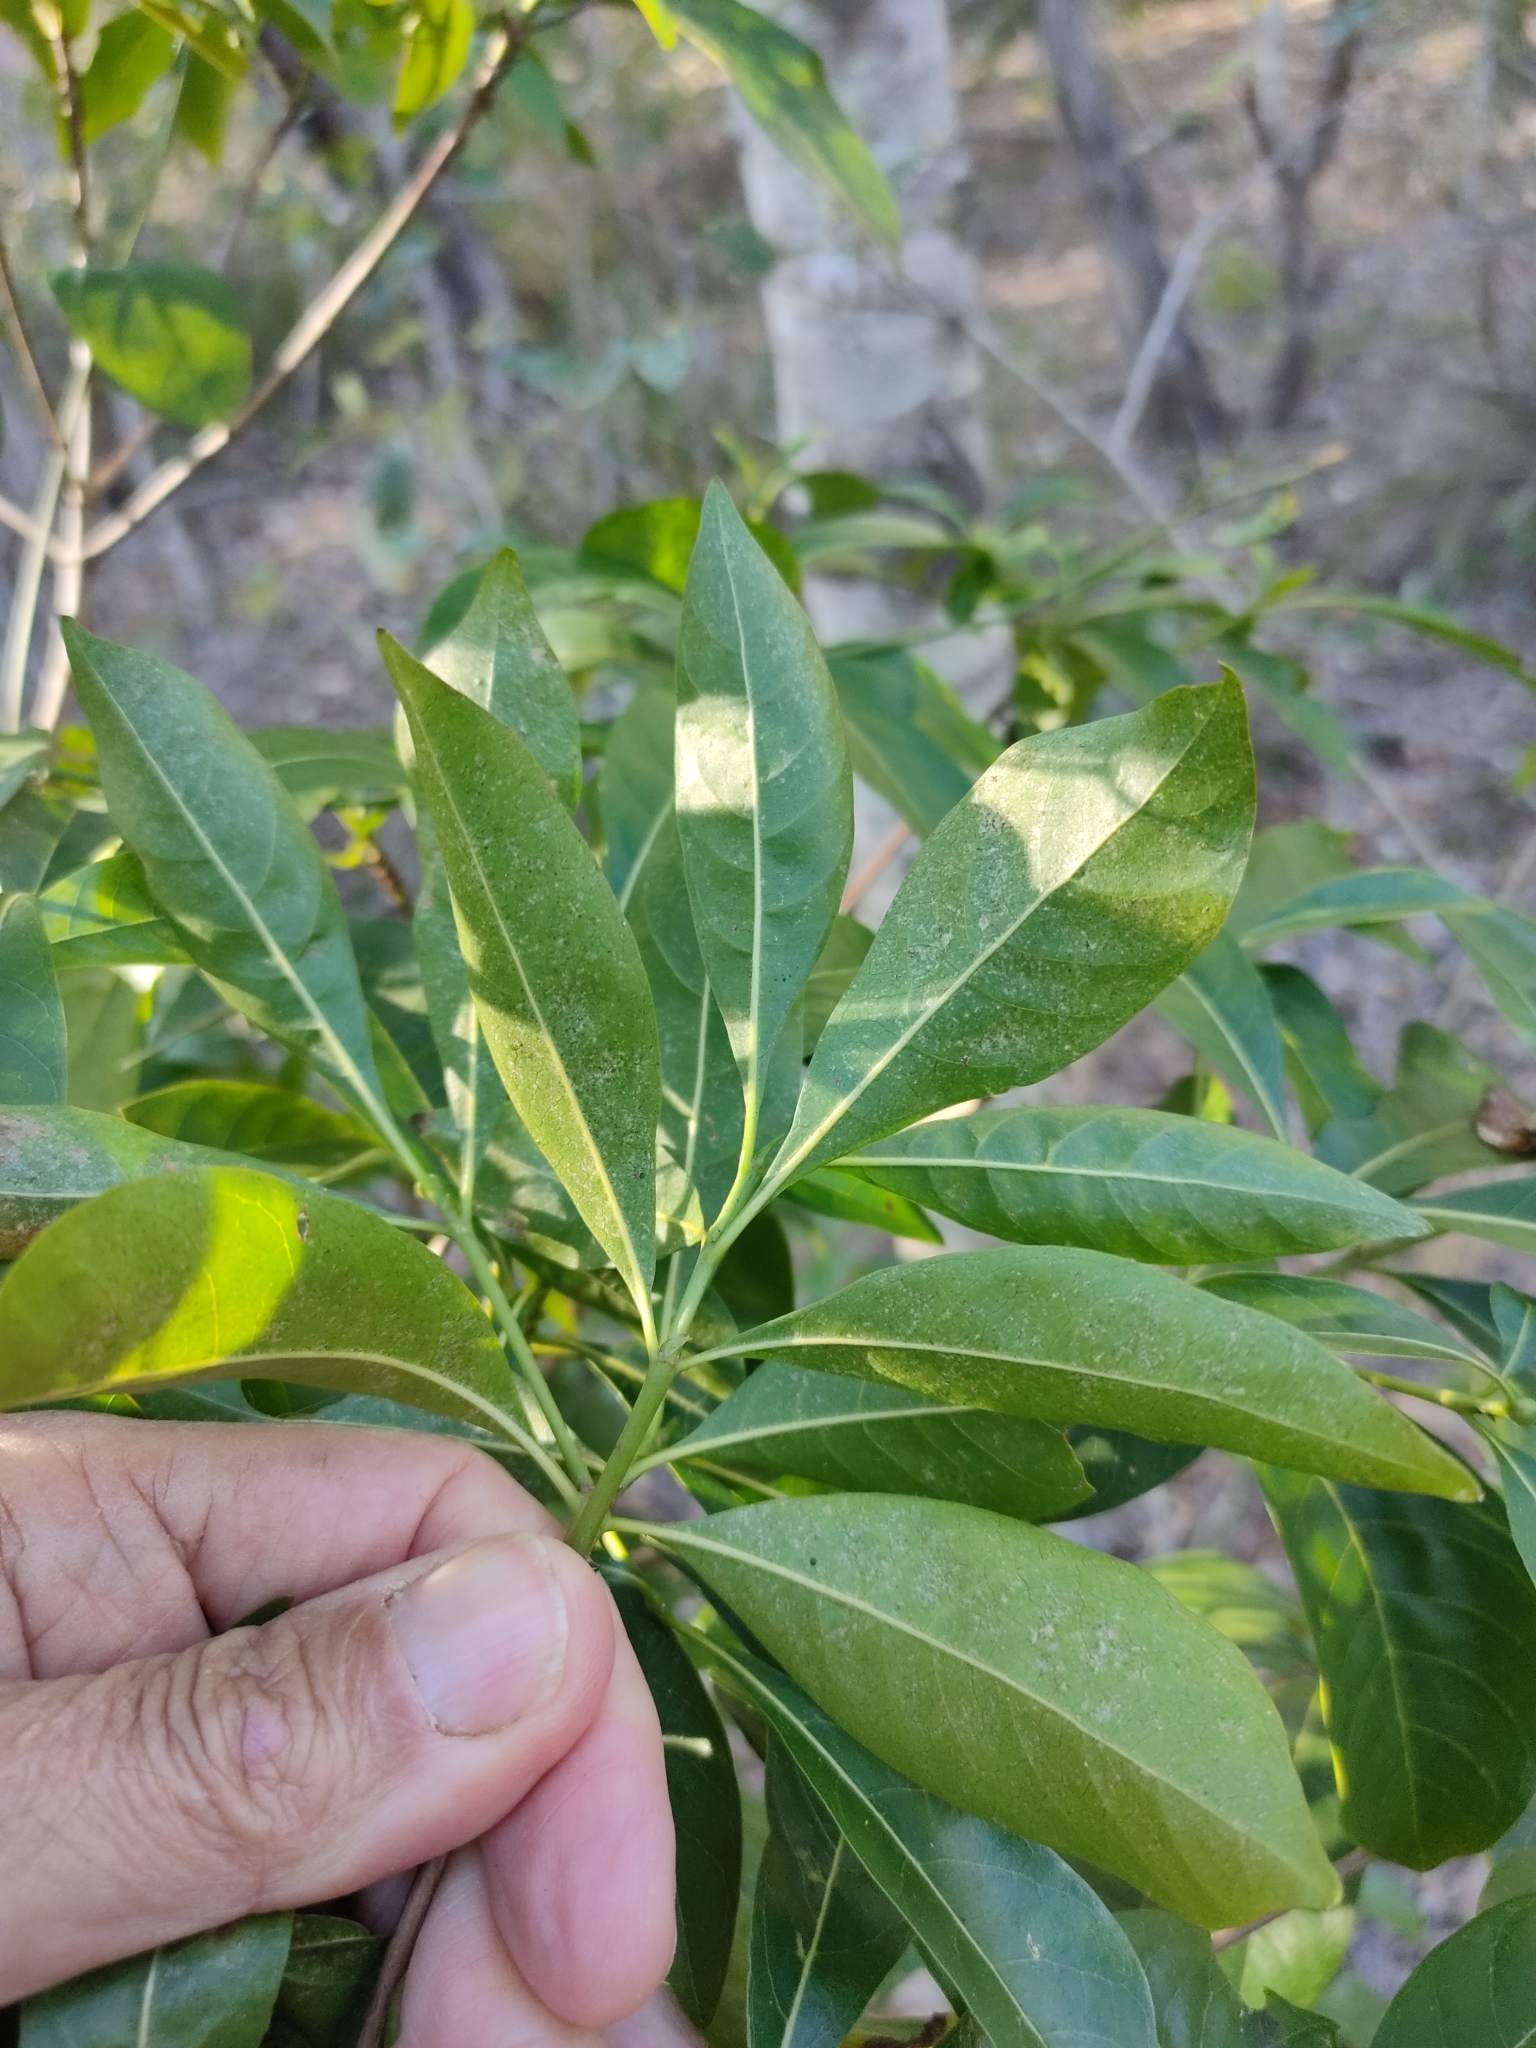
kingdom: Plantae
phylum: Tracheophyta
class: Magnoliopsida
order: Gentianales
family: Rubiaceae
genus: Pavetta
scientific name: Pavetta australiensis
